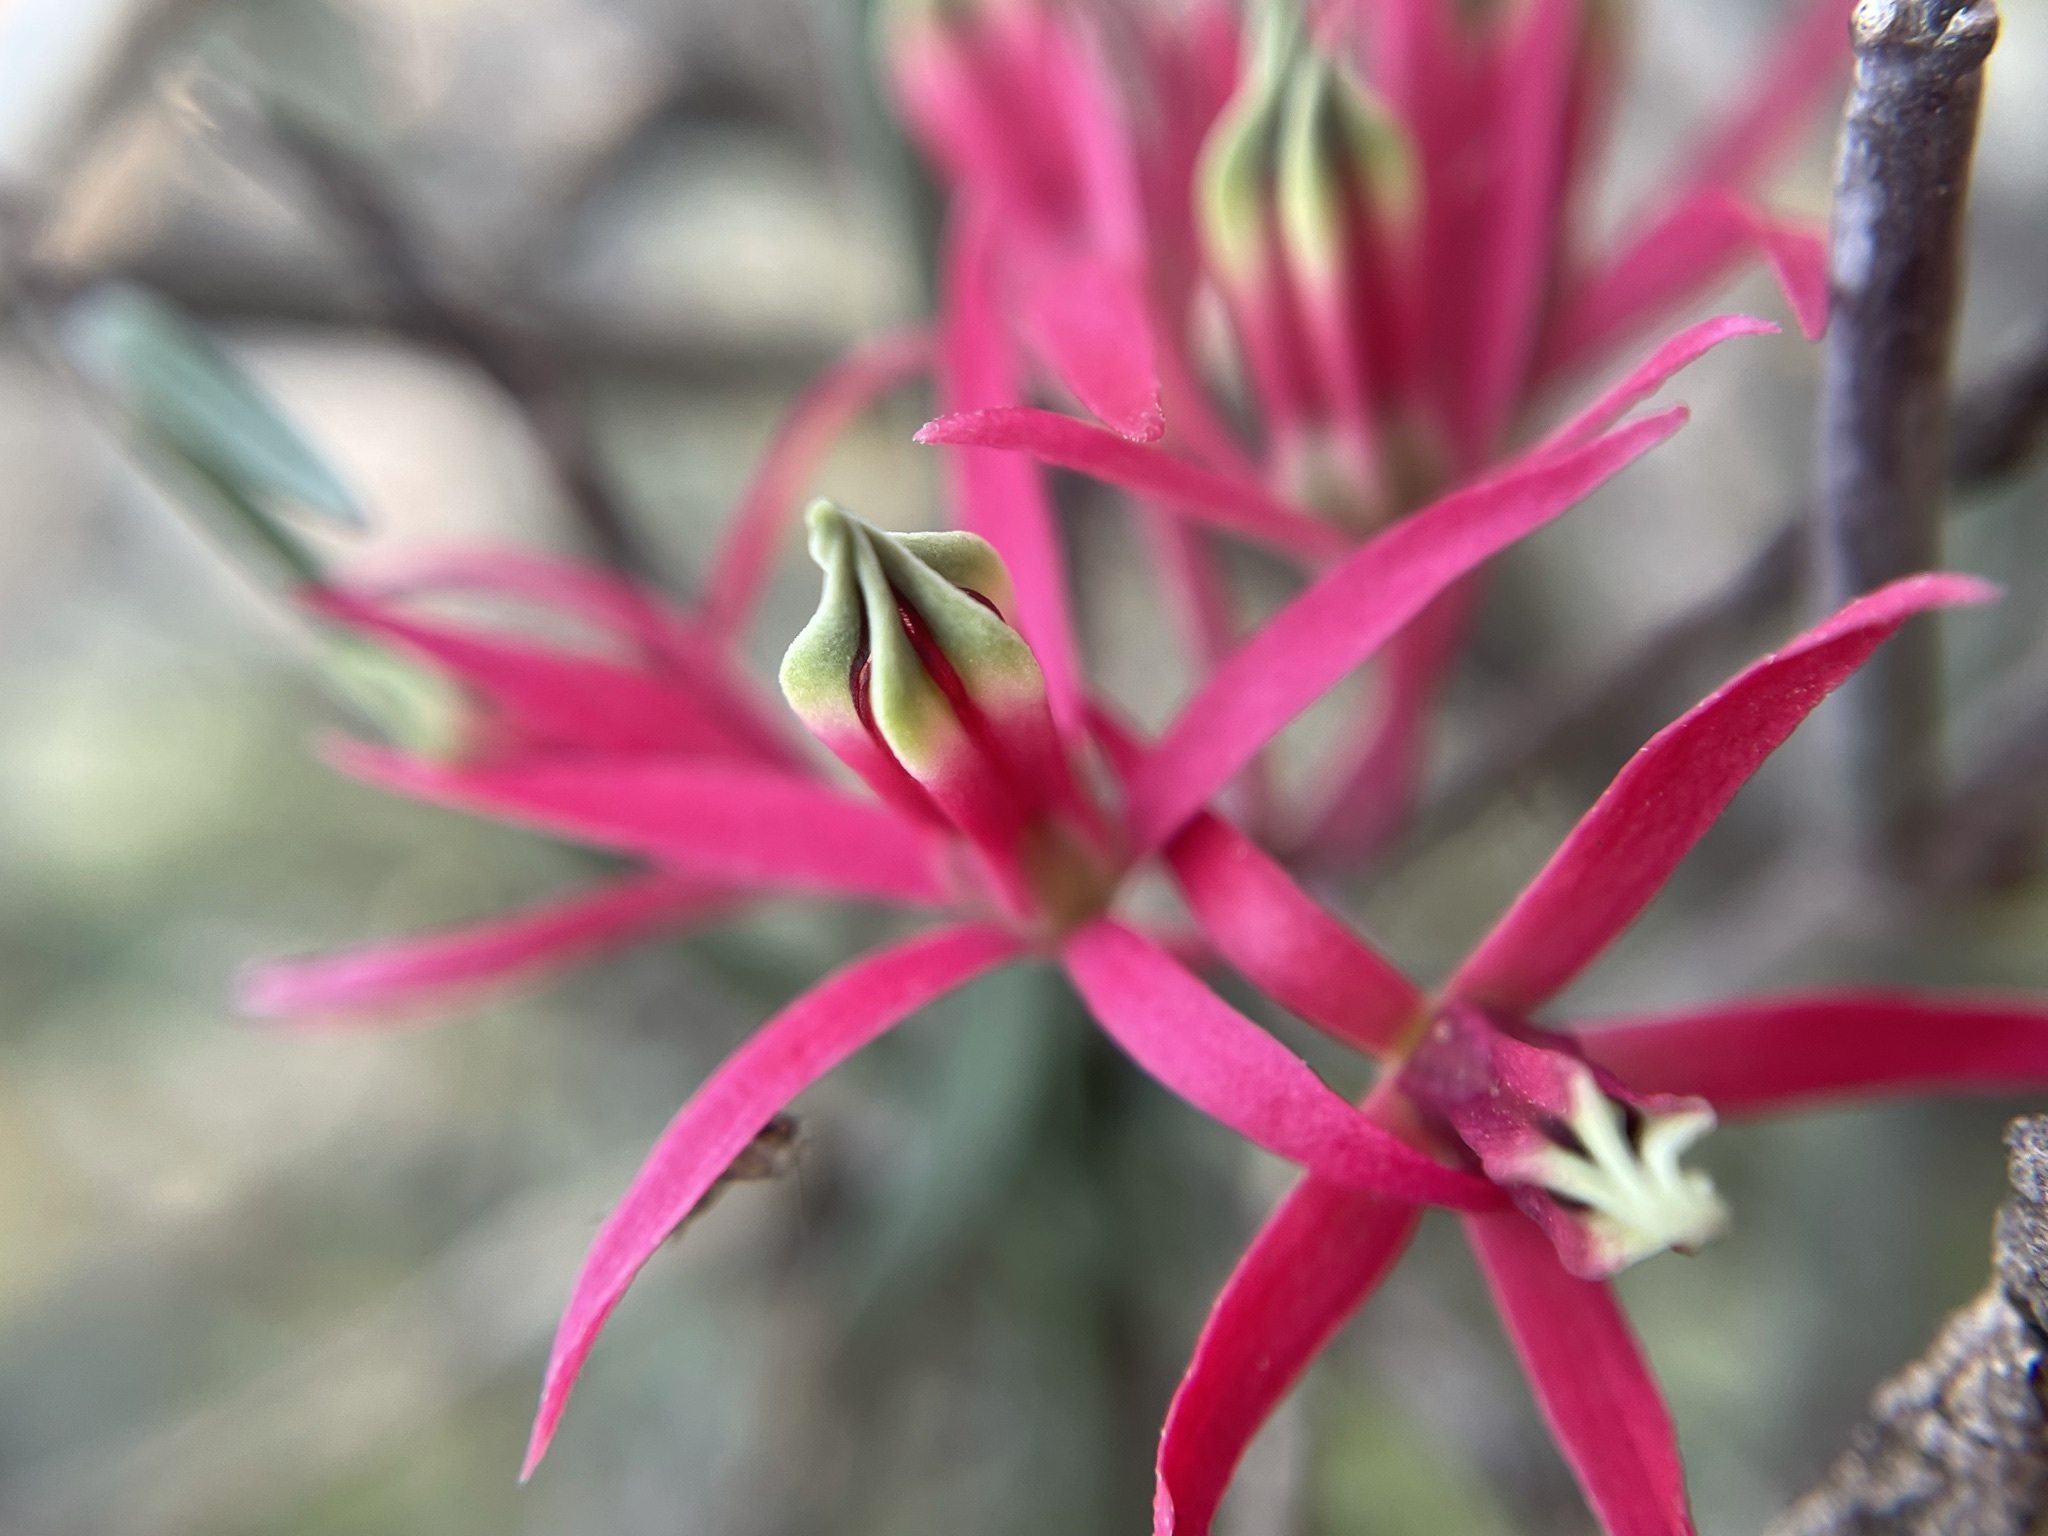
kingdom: Plantae
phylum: Tracheophyta
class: Magnoliopsida
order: Gentianales
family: Apocynaceae
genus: Microloma
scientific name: Microloma calycinum
